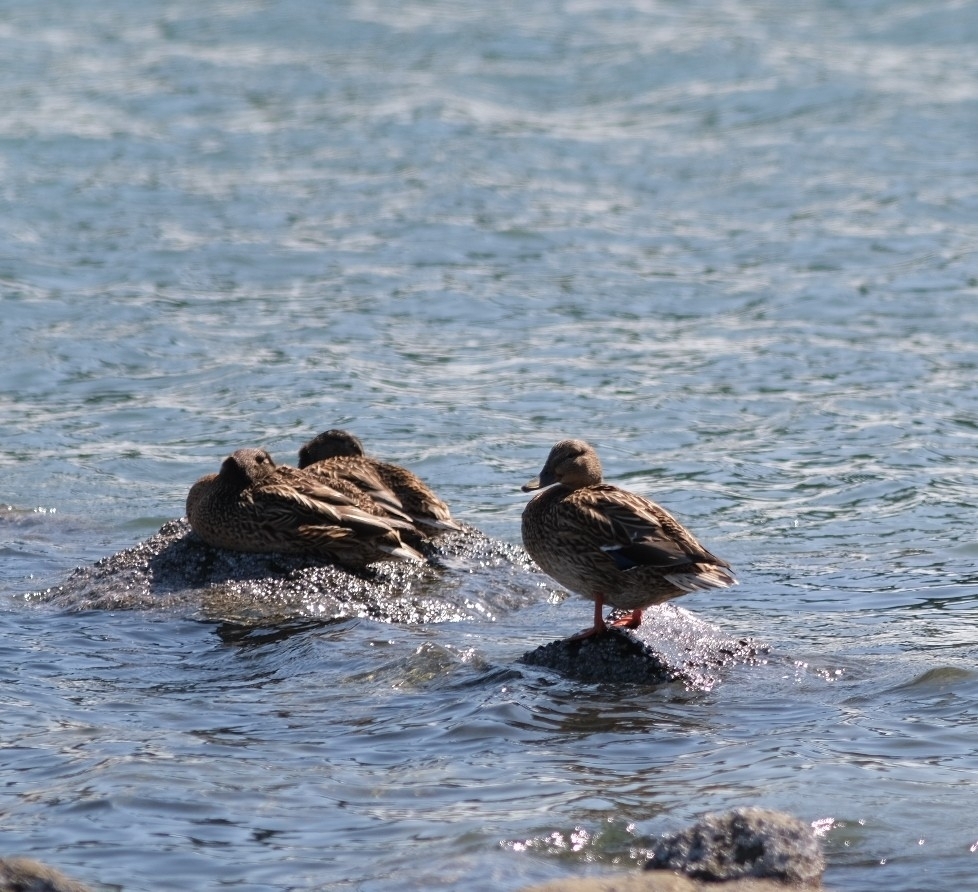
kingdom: Animalia
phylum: Chordata
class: Aves
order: Anseriformes
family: Anatidae
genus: Anas
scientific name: Anas crecca
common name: Eurasian teal
